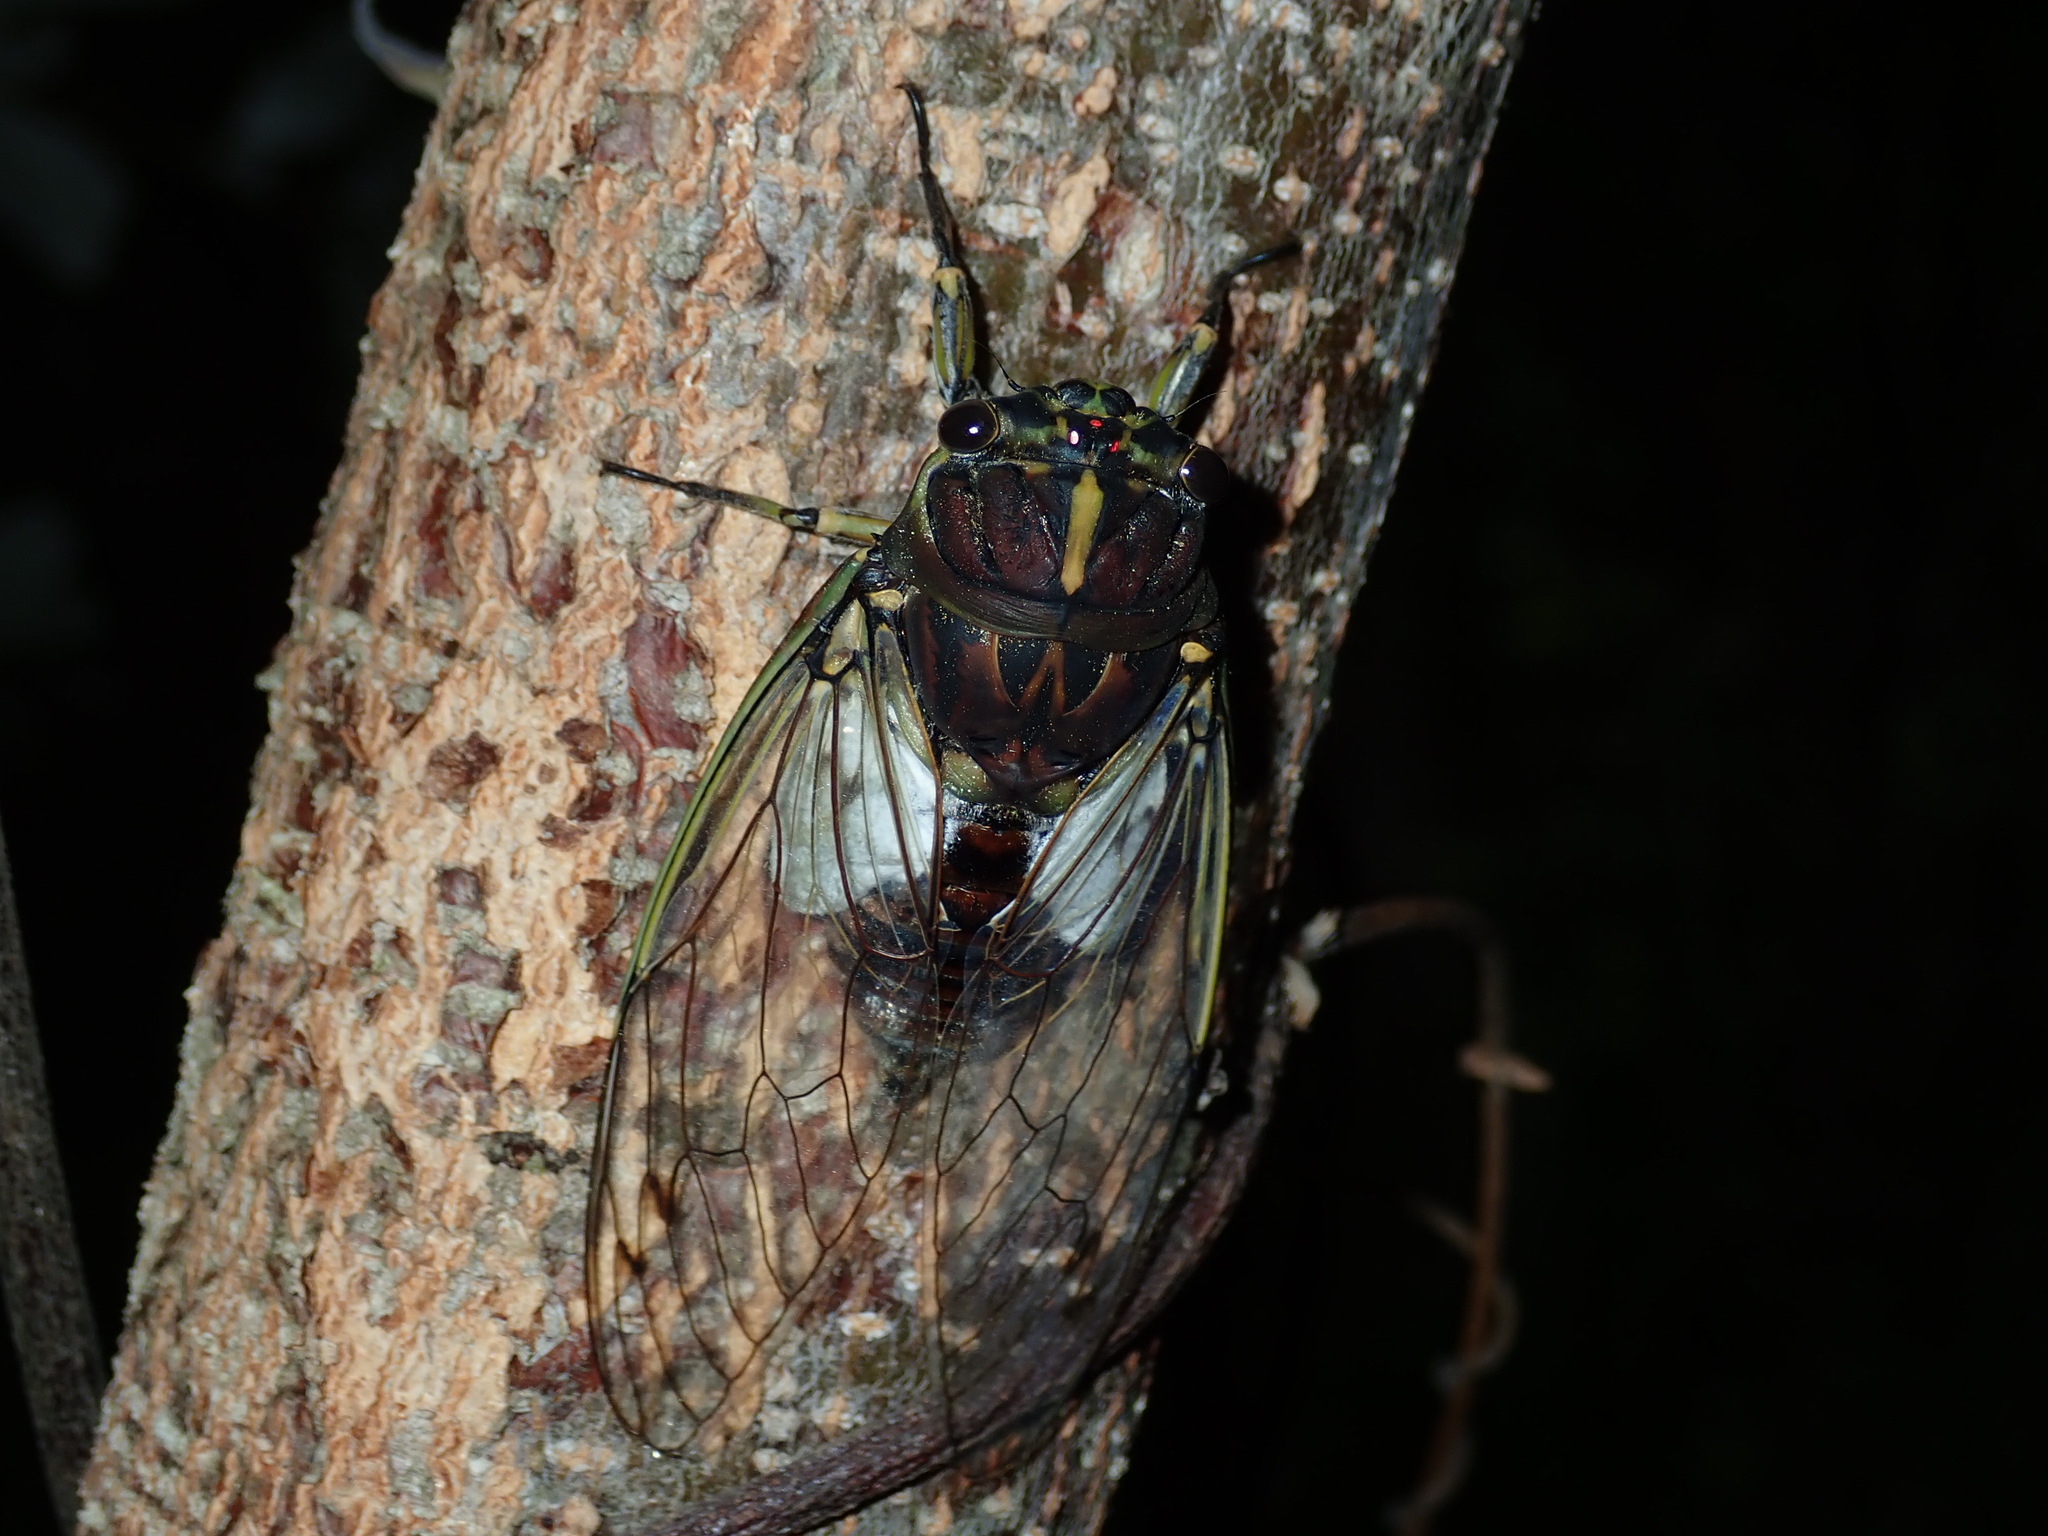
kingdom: Animalia
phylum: Arthropoda
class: Insecta
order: Hemiptera
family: Cicadidae
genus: Arunta
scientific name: Arunta perulata
